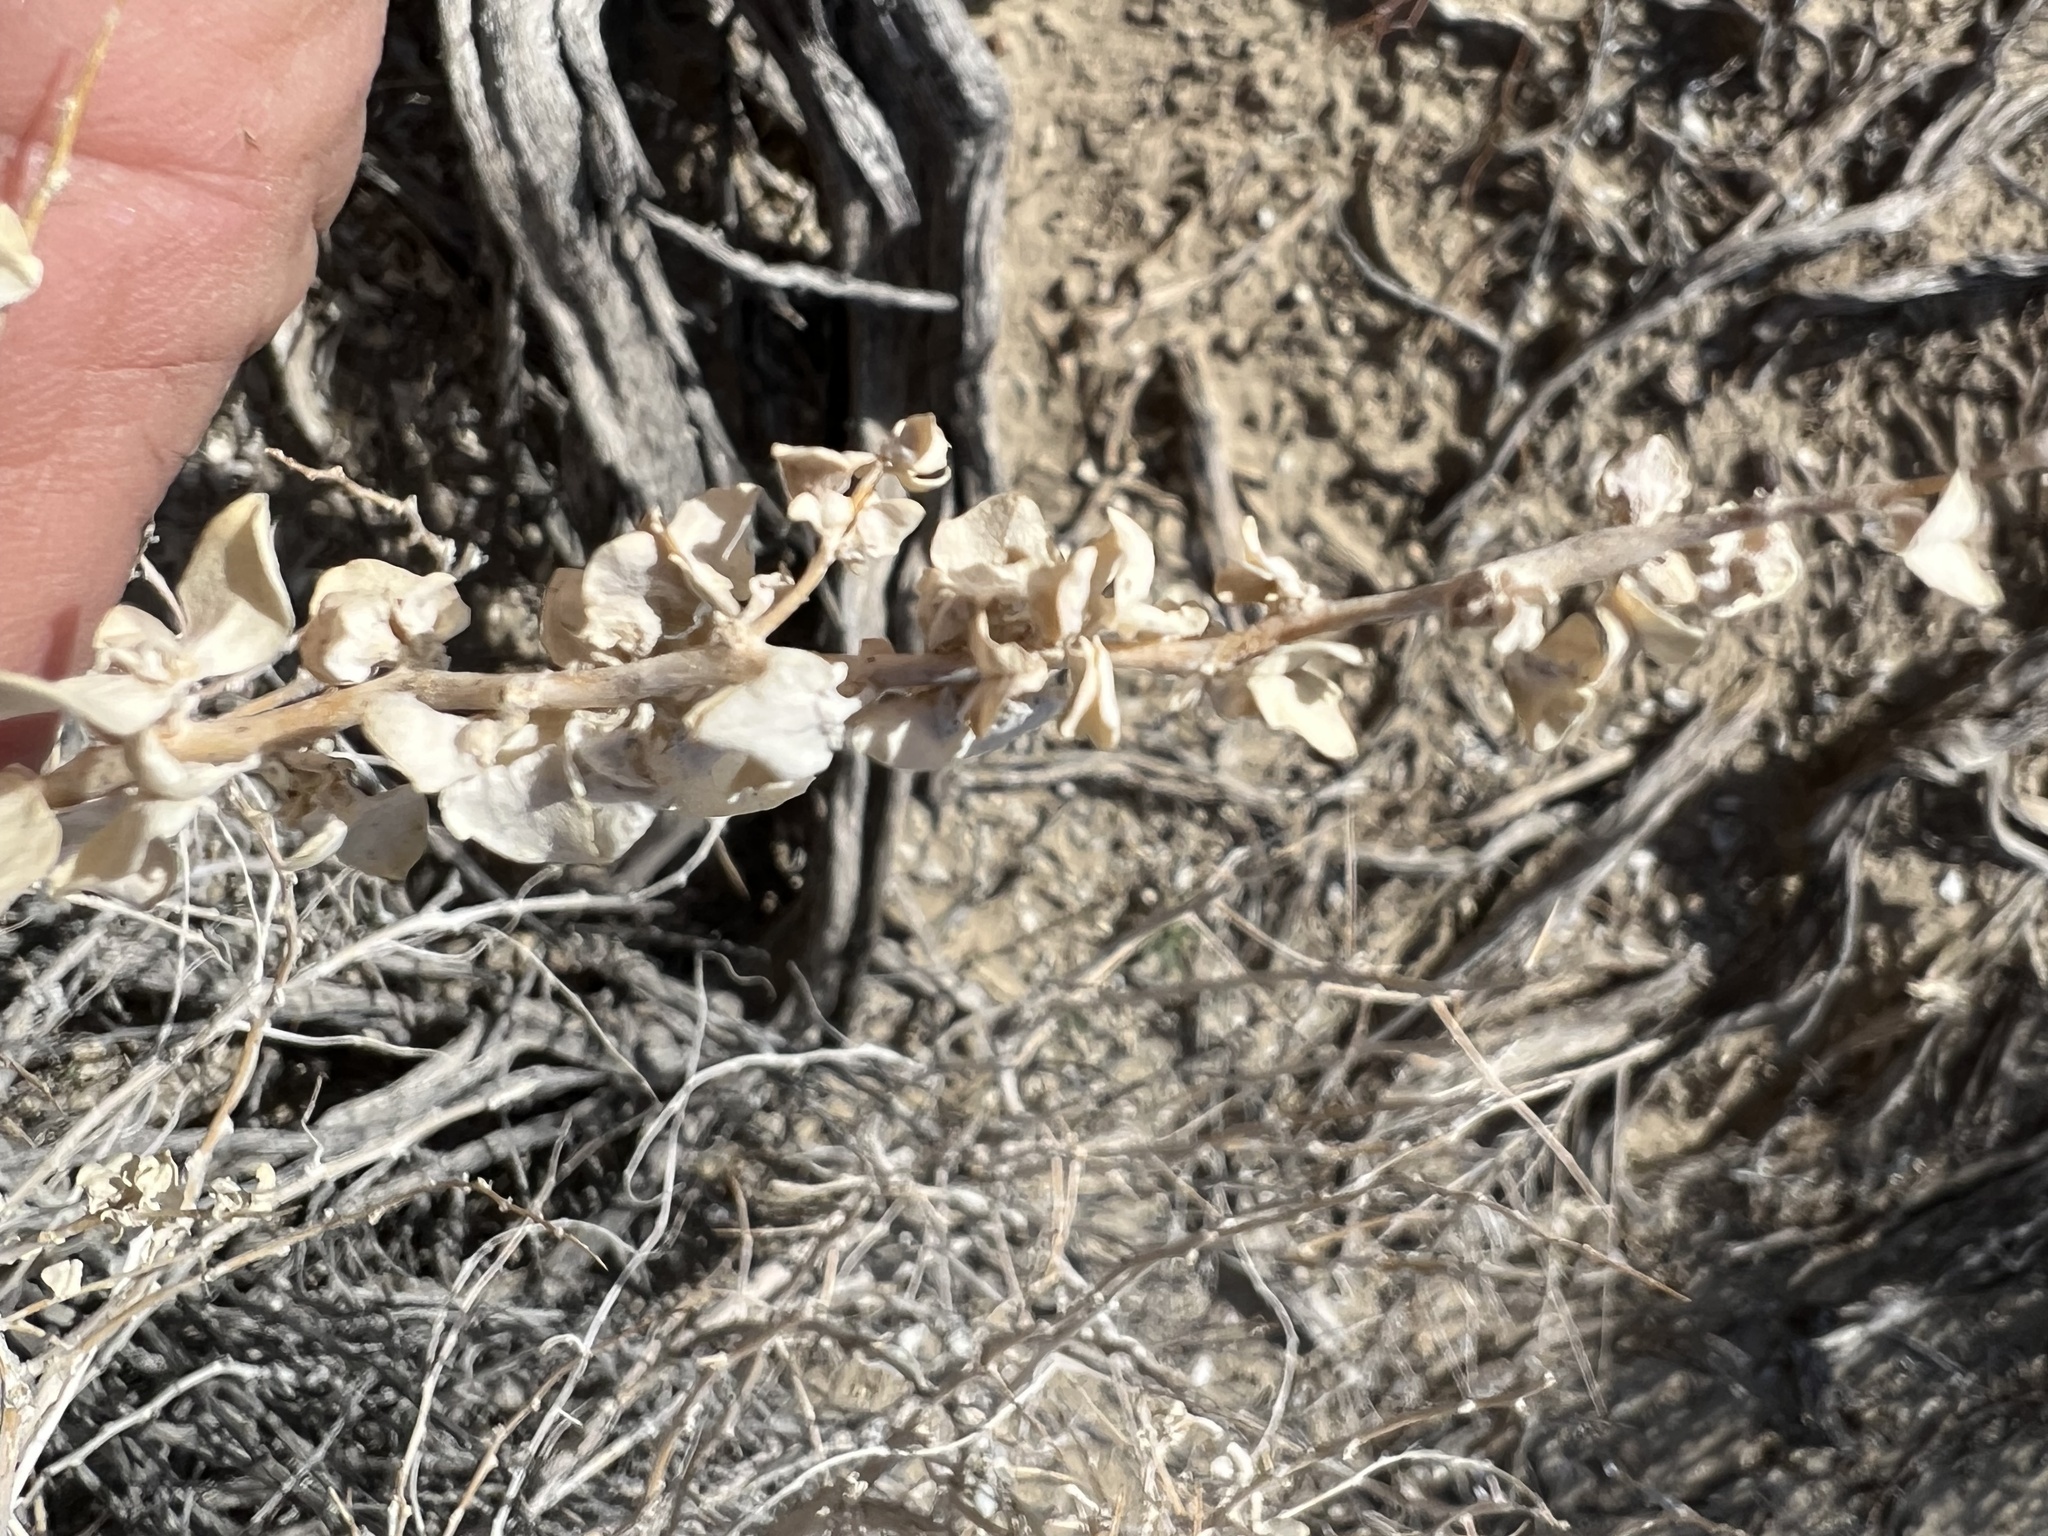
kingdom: Plantae
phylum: Tracheophyta
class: Magnoliopsida
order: Caryophyllales
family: Amaranthaceae
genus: Atriplex
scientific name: Atriplex confertifolia
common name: Shadscale
